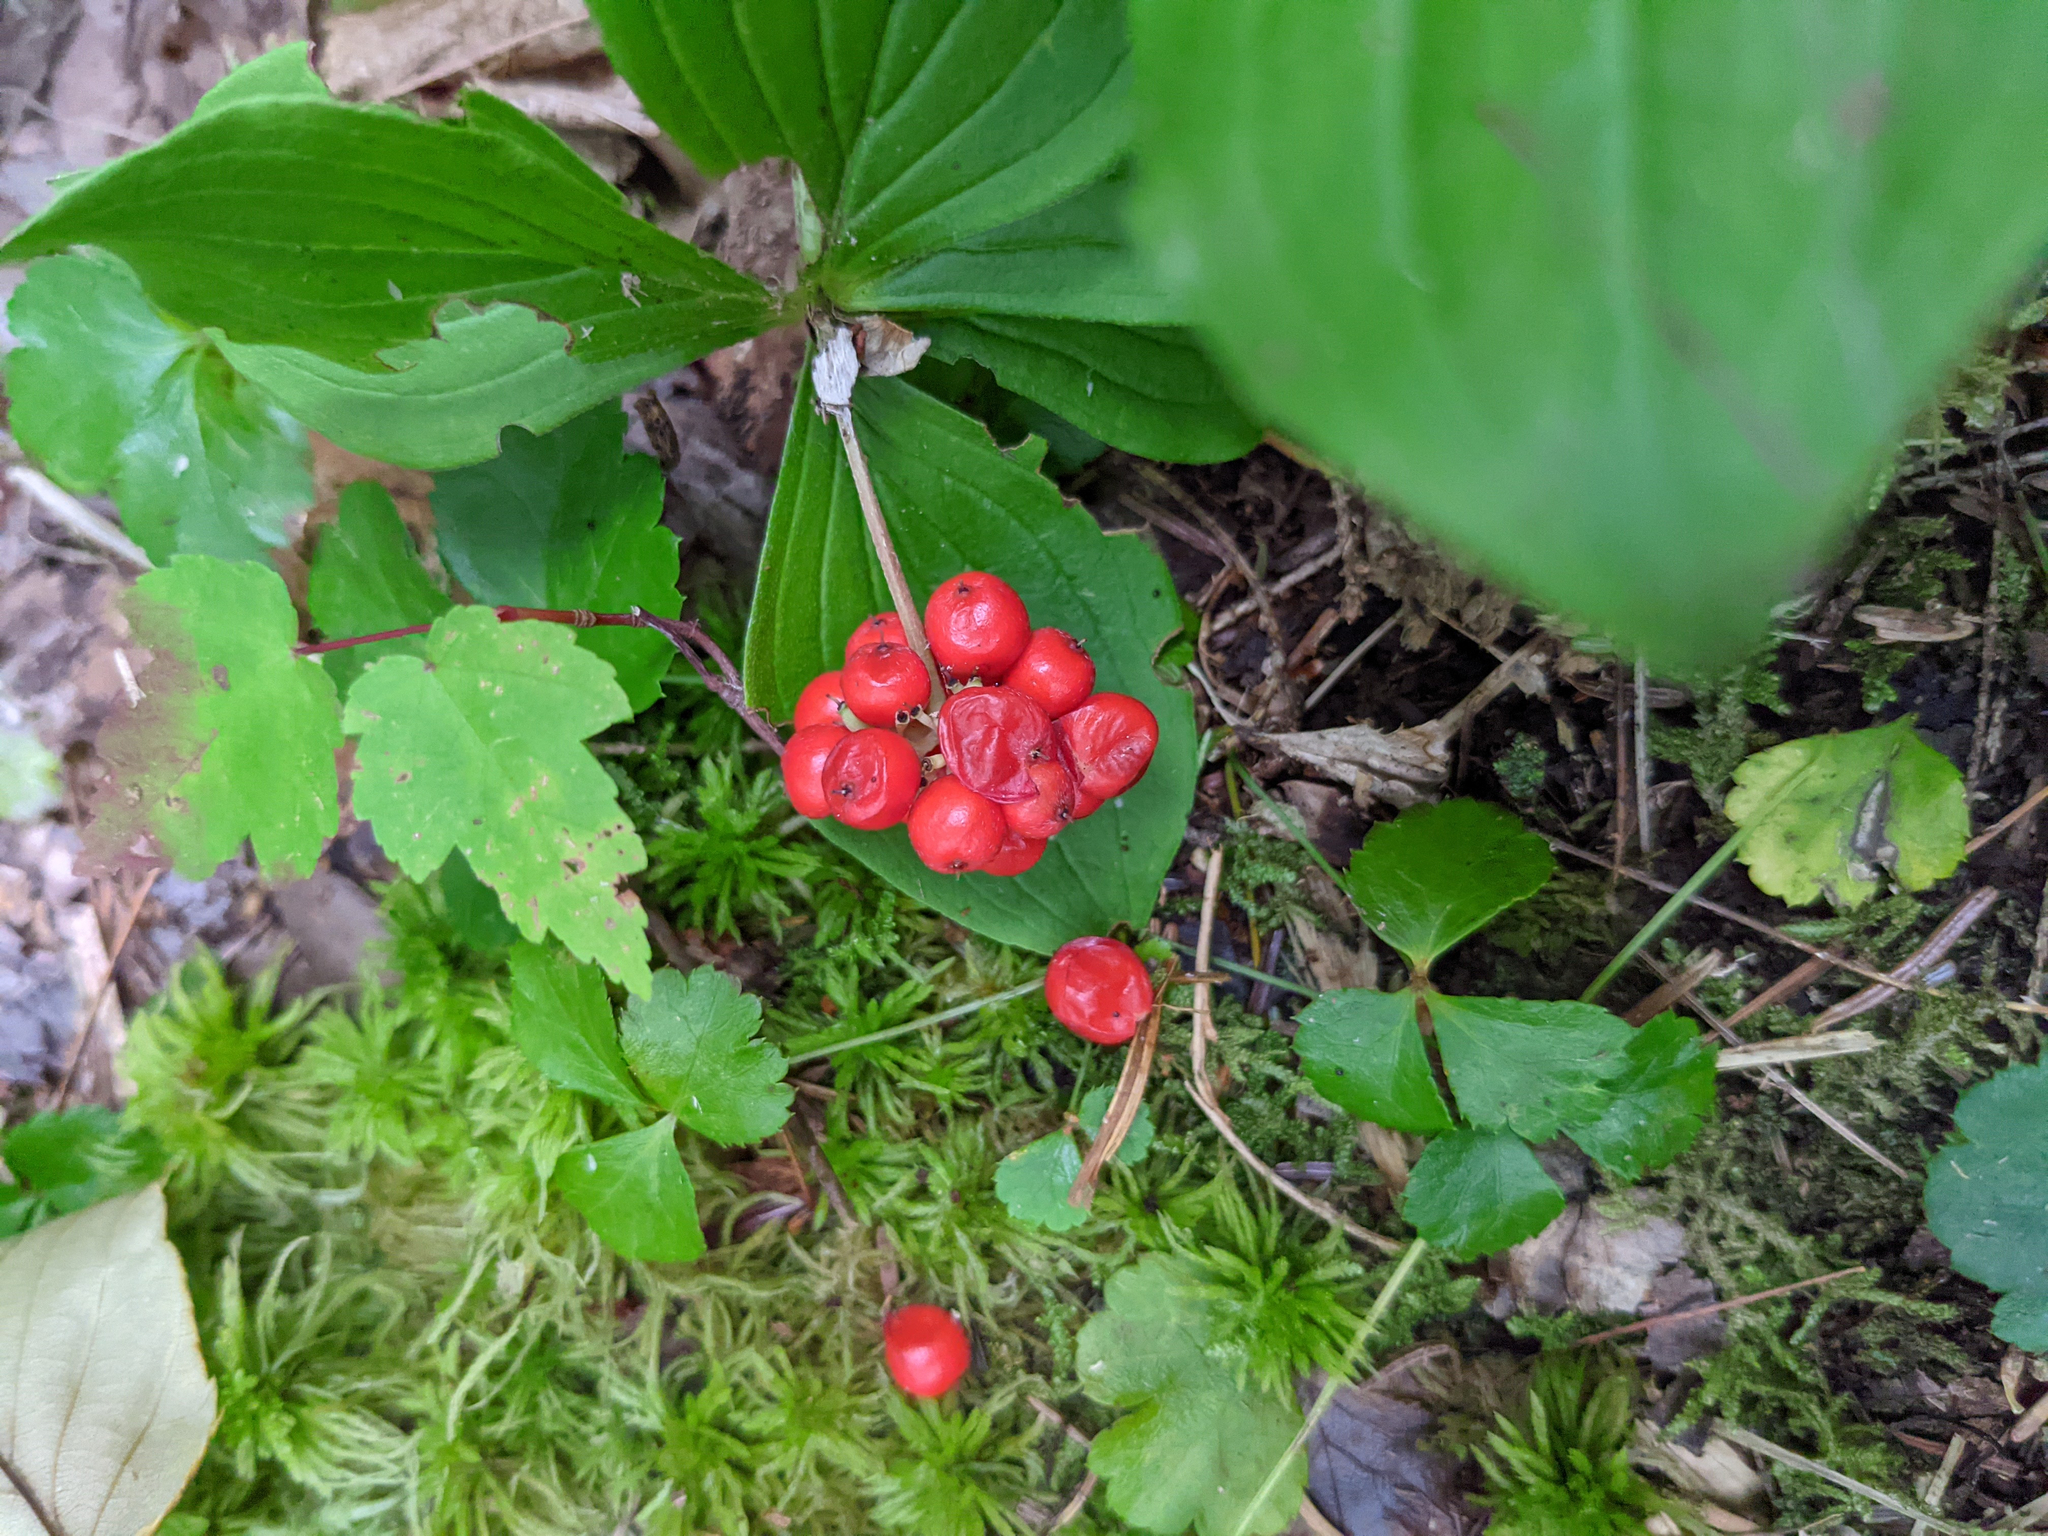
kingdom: Plantae
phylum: Tracheophyta
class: Magnoliopsida
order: Cornales
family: Cornaceae
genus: Cornus
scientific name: Cornus canadensis
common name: Creeping dogwood
